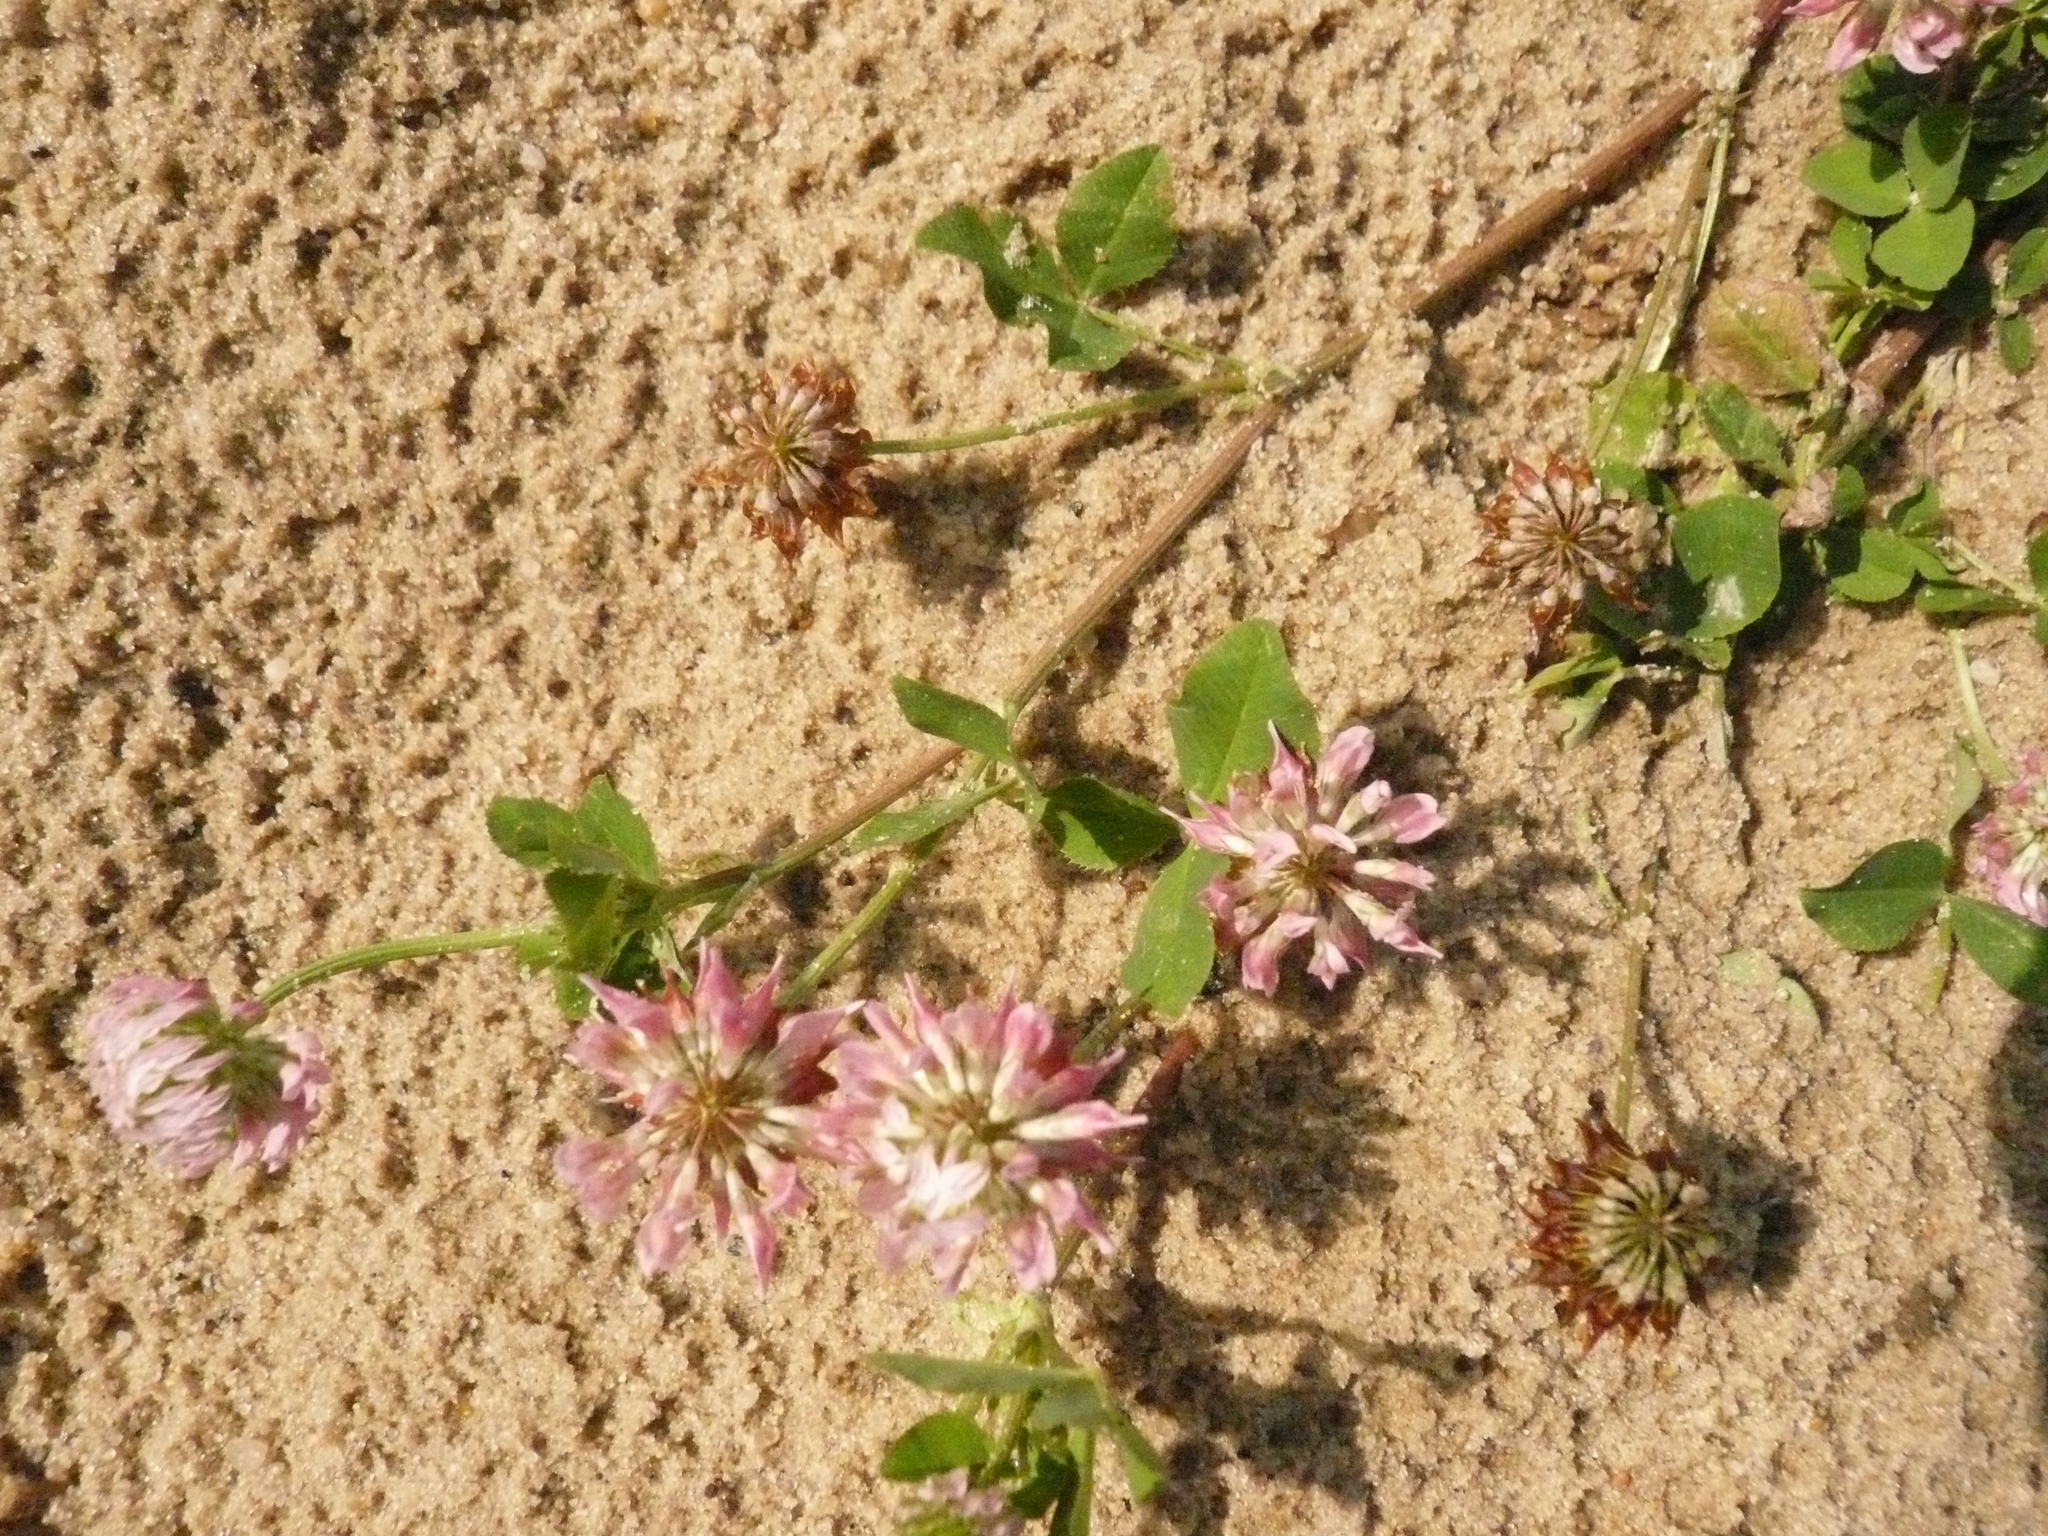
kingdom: Plantae
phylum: Tracheophyta
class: Magnoliopsida
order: Fabales
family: Fabaceae
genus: Trifolium
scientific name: Trifolium hybridum
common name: Alsike clover
